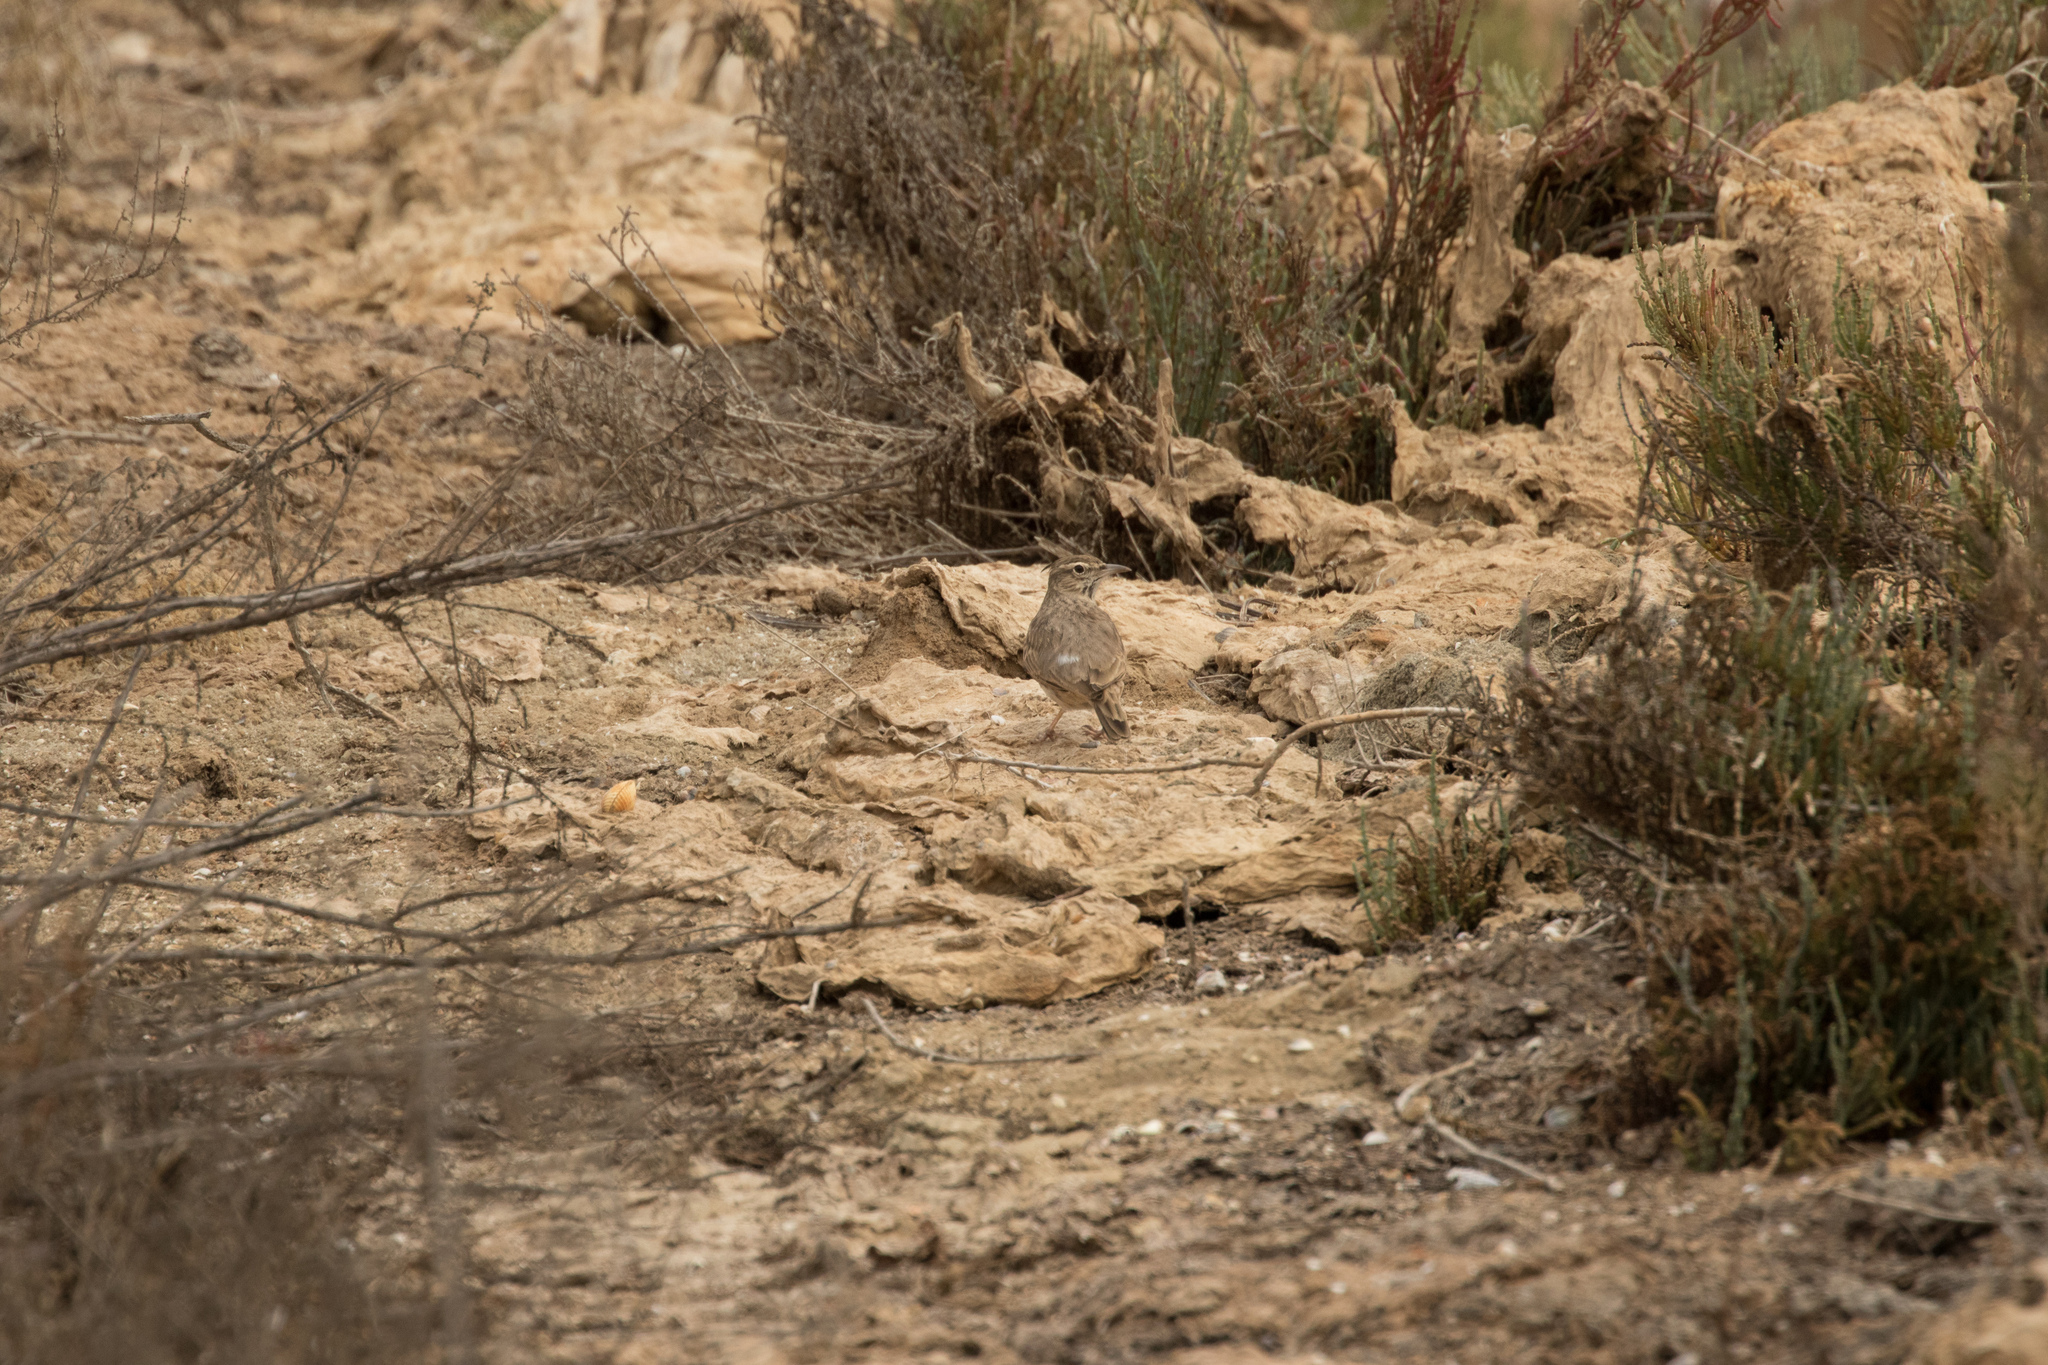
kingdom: Animalia
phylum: Chordata
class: Aves
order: Passeriformes
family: Alaudidae
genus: Galerida
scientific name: Galerida cristata
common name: Crested lark
